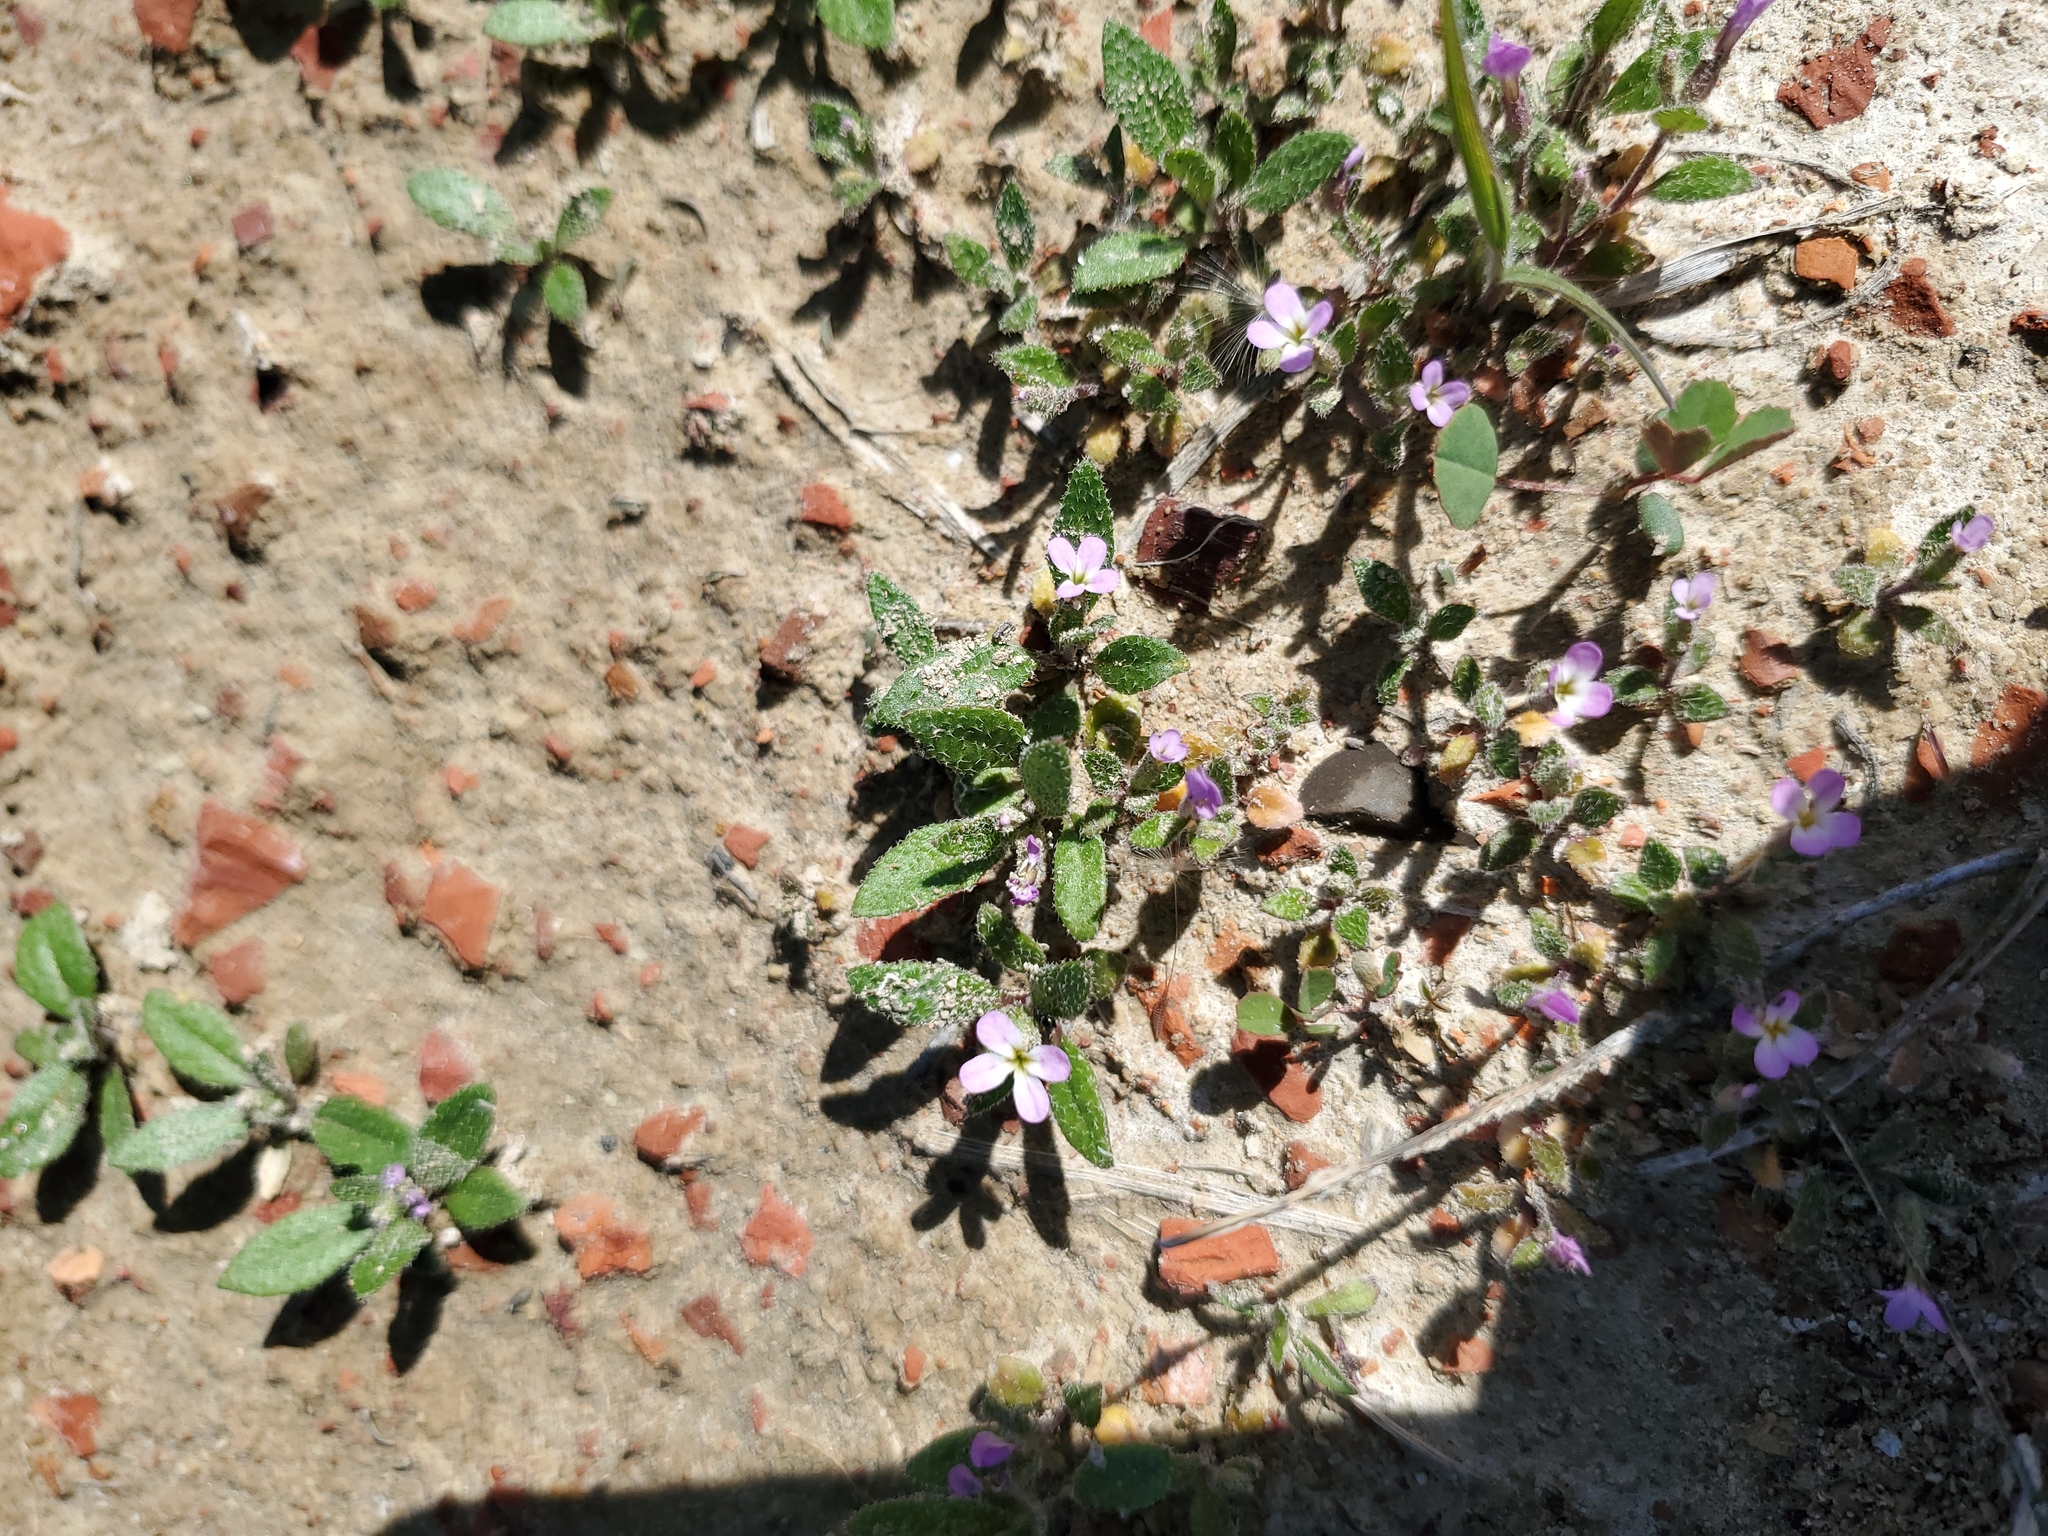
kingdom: Plantae
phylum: Tracheophyta
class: Magnoliopsida
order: Brassicales
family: Brassicaceae
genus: Strigosella
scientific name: Strigosella africana
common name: African mustard
